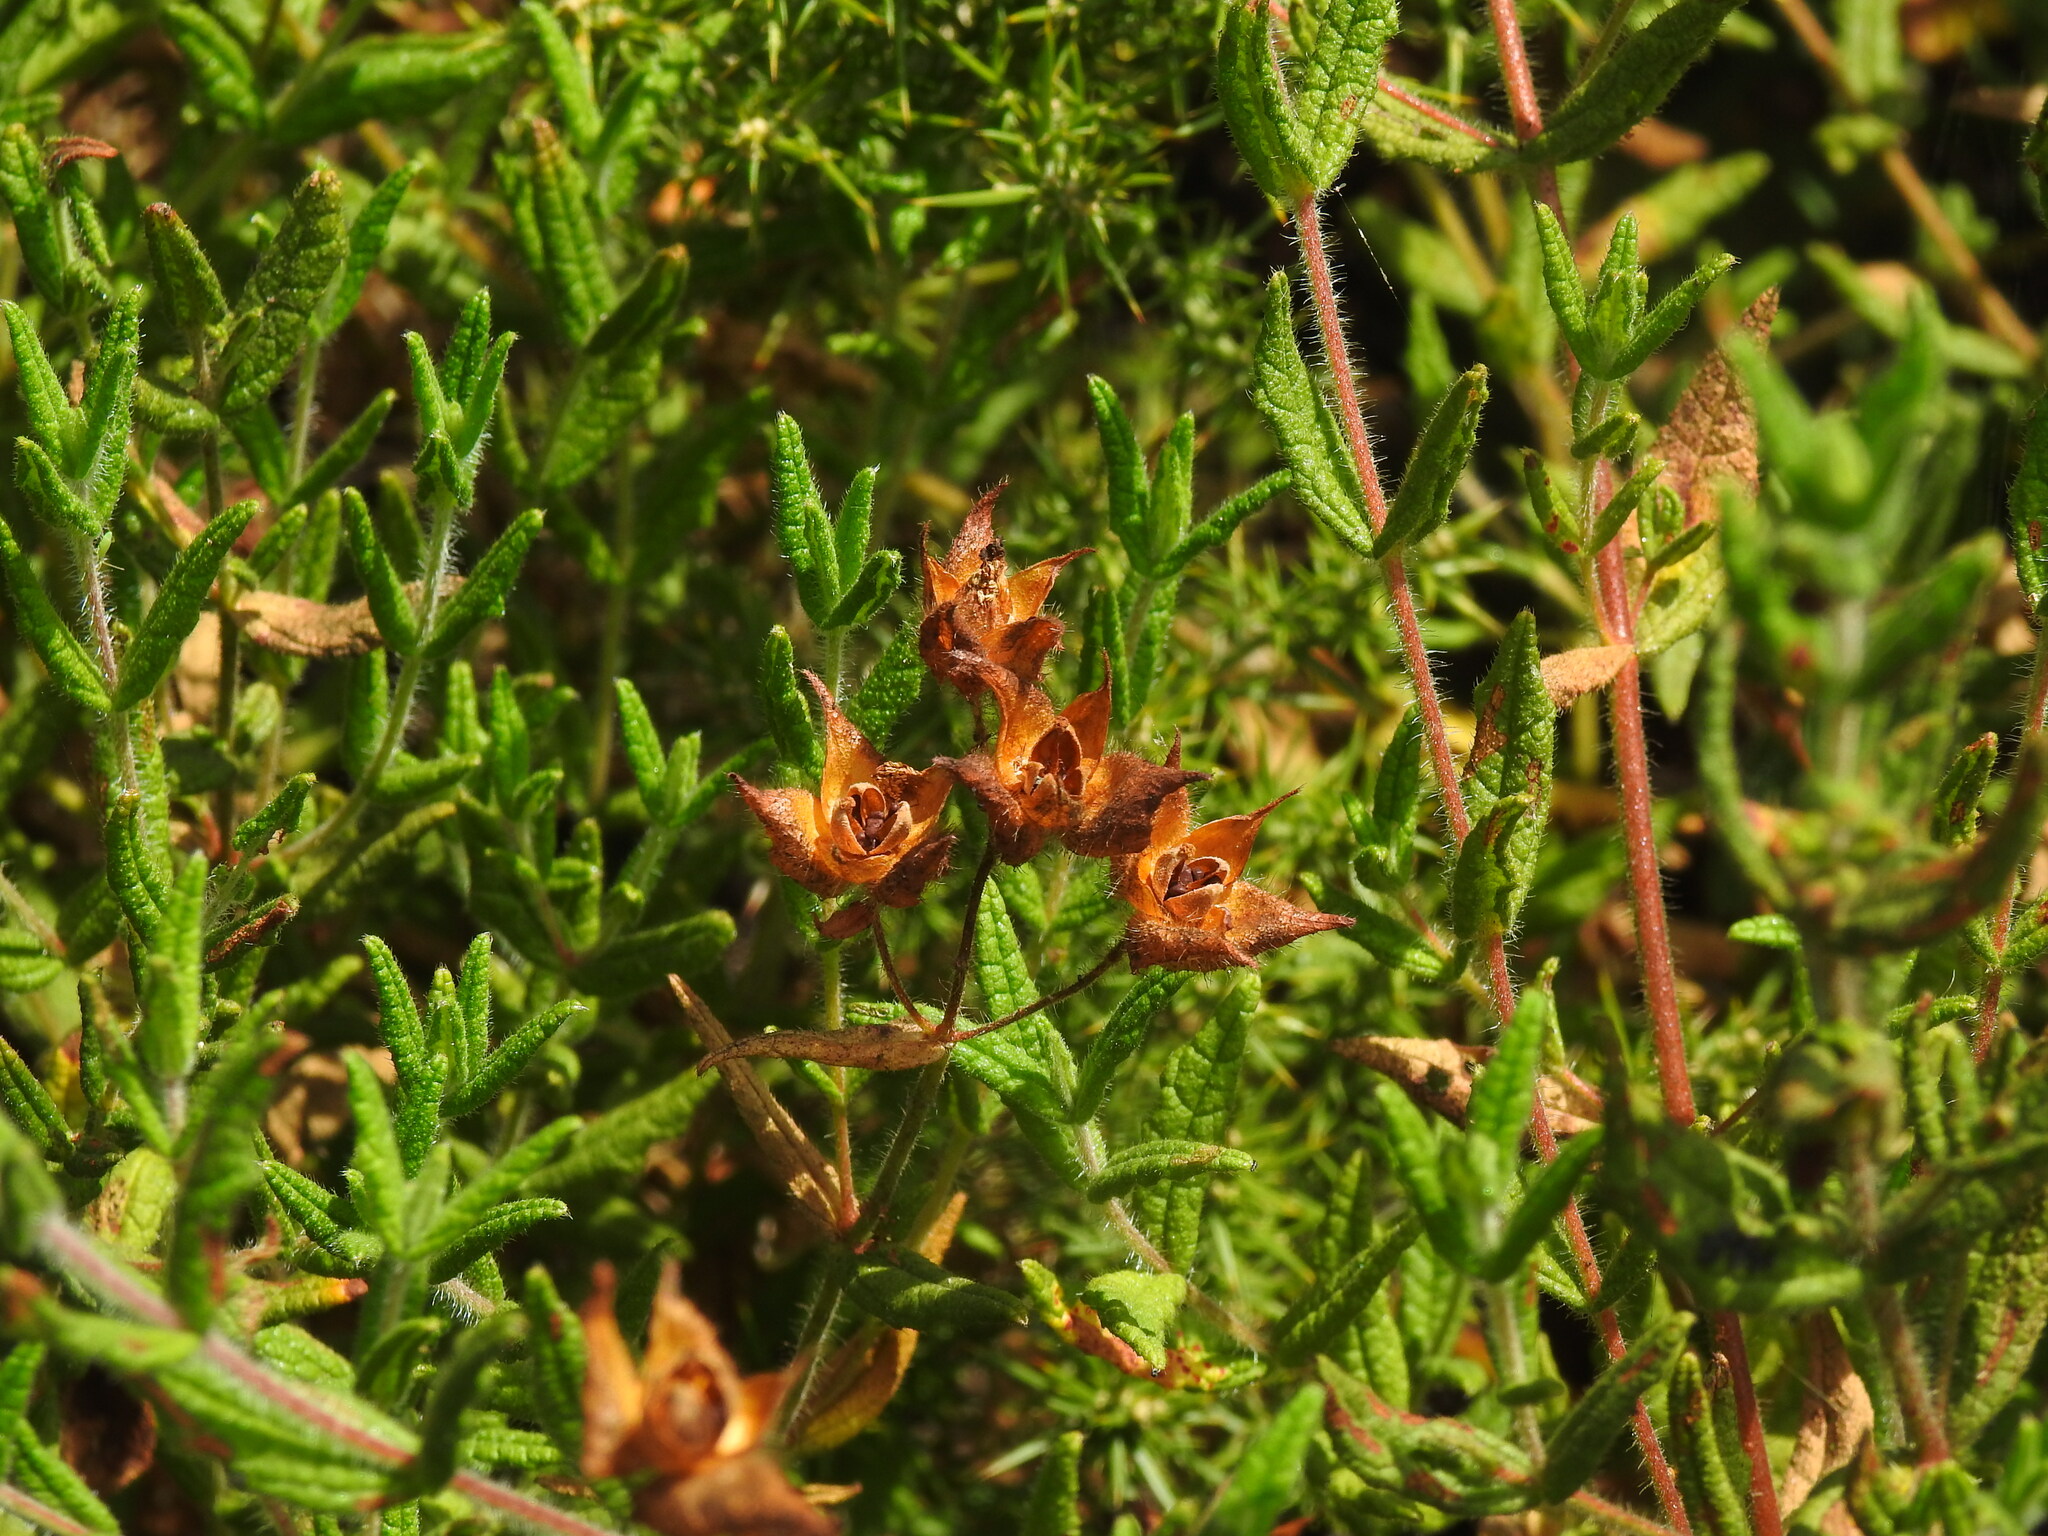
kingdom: Plantae
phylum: Tracheophyta
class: Magnoliopsida
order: Malvales
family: Cistaceae
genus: Cistus
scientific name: Cistus inflatus
